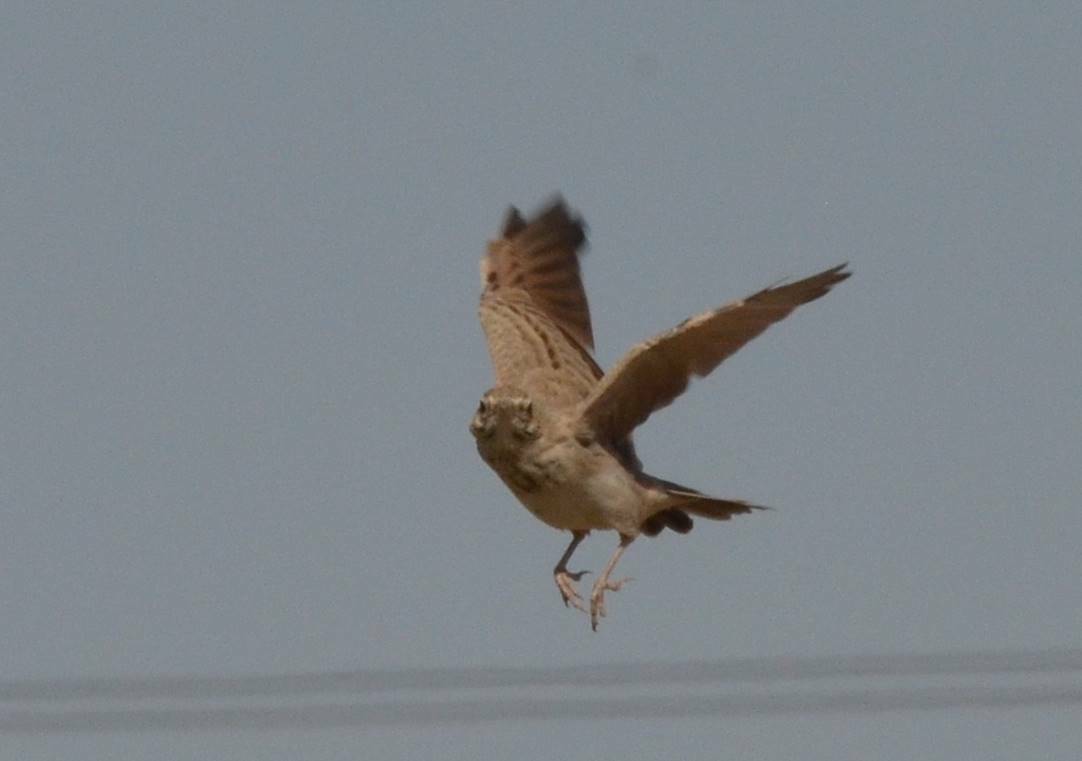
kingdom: Animalia
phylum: Chordata
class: Aves
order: Passeriformes
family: Alaudidae
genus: Galerida
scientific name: Galerida cristata
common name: Crested lark
